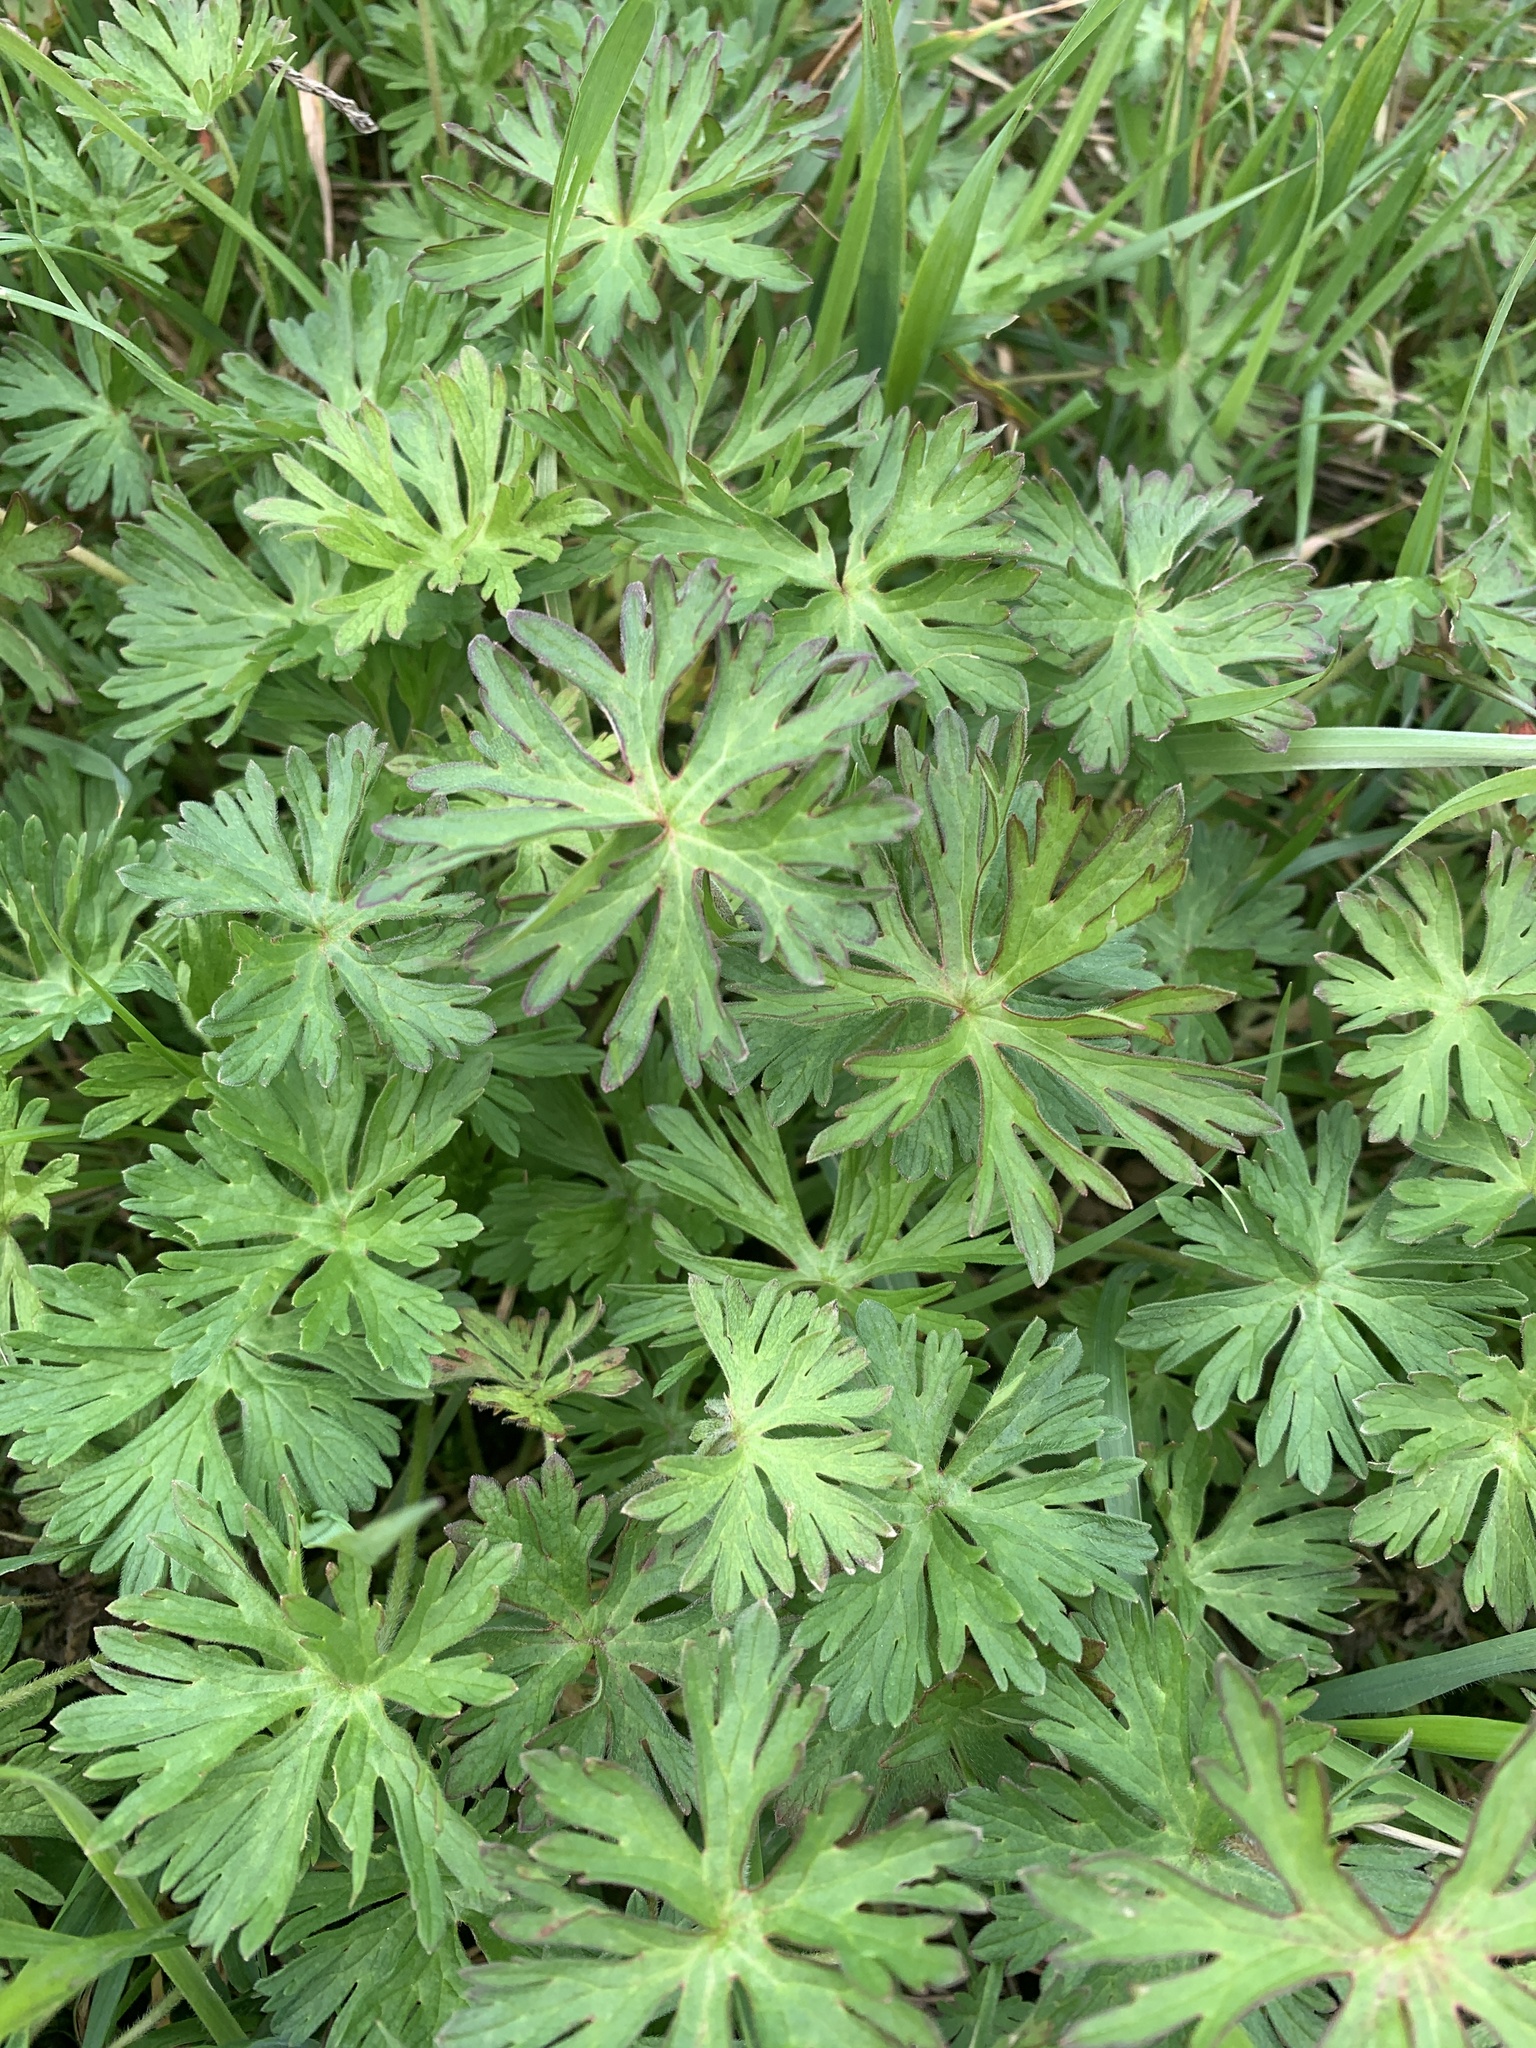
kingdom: Plantae
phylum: Tracheophyta
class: Magnoliopsida
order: Geraniales
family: Geraniaceae
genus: Geranium
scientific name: Geranium dissectum
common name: Cut-leaved crane's-bill
